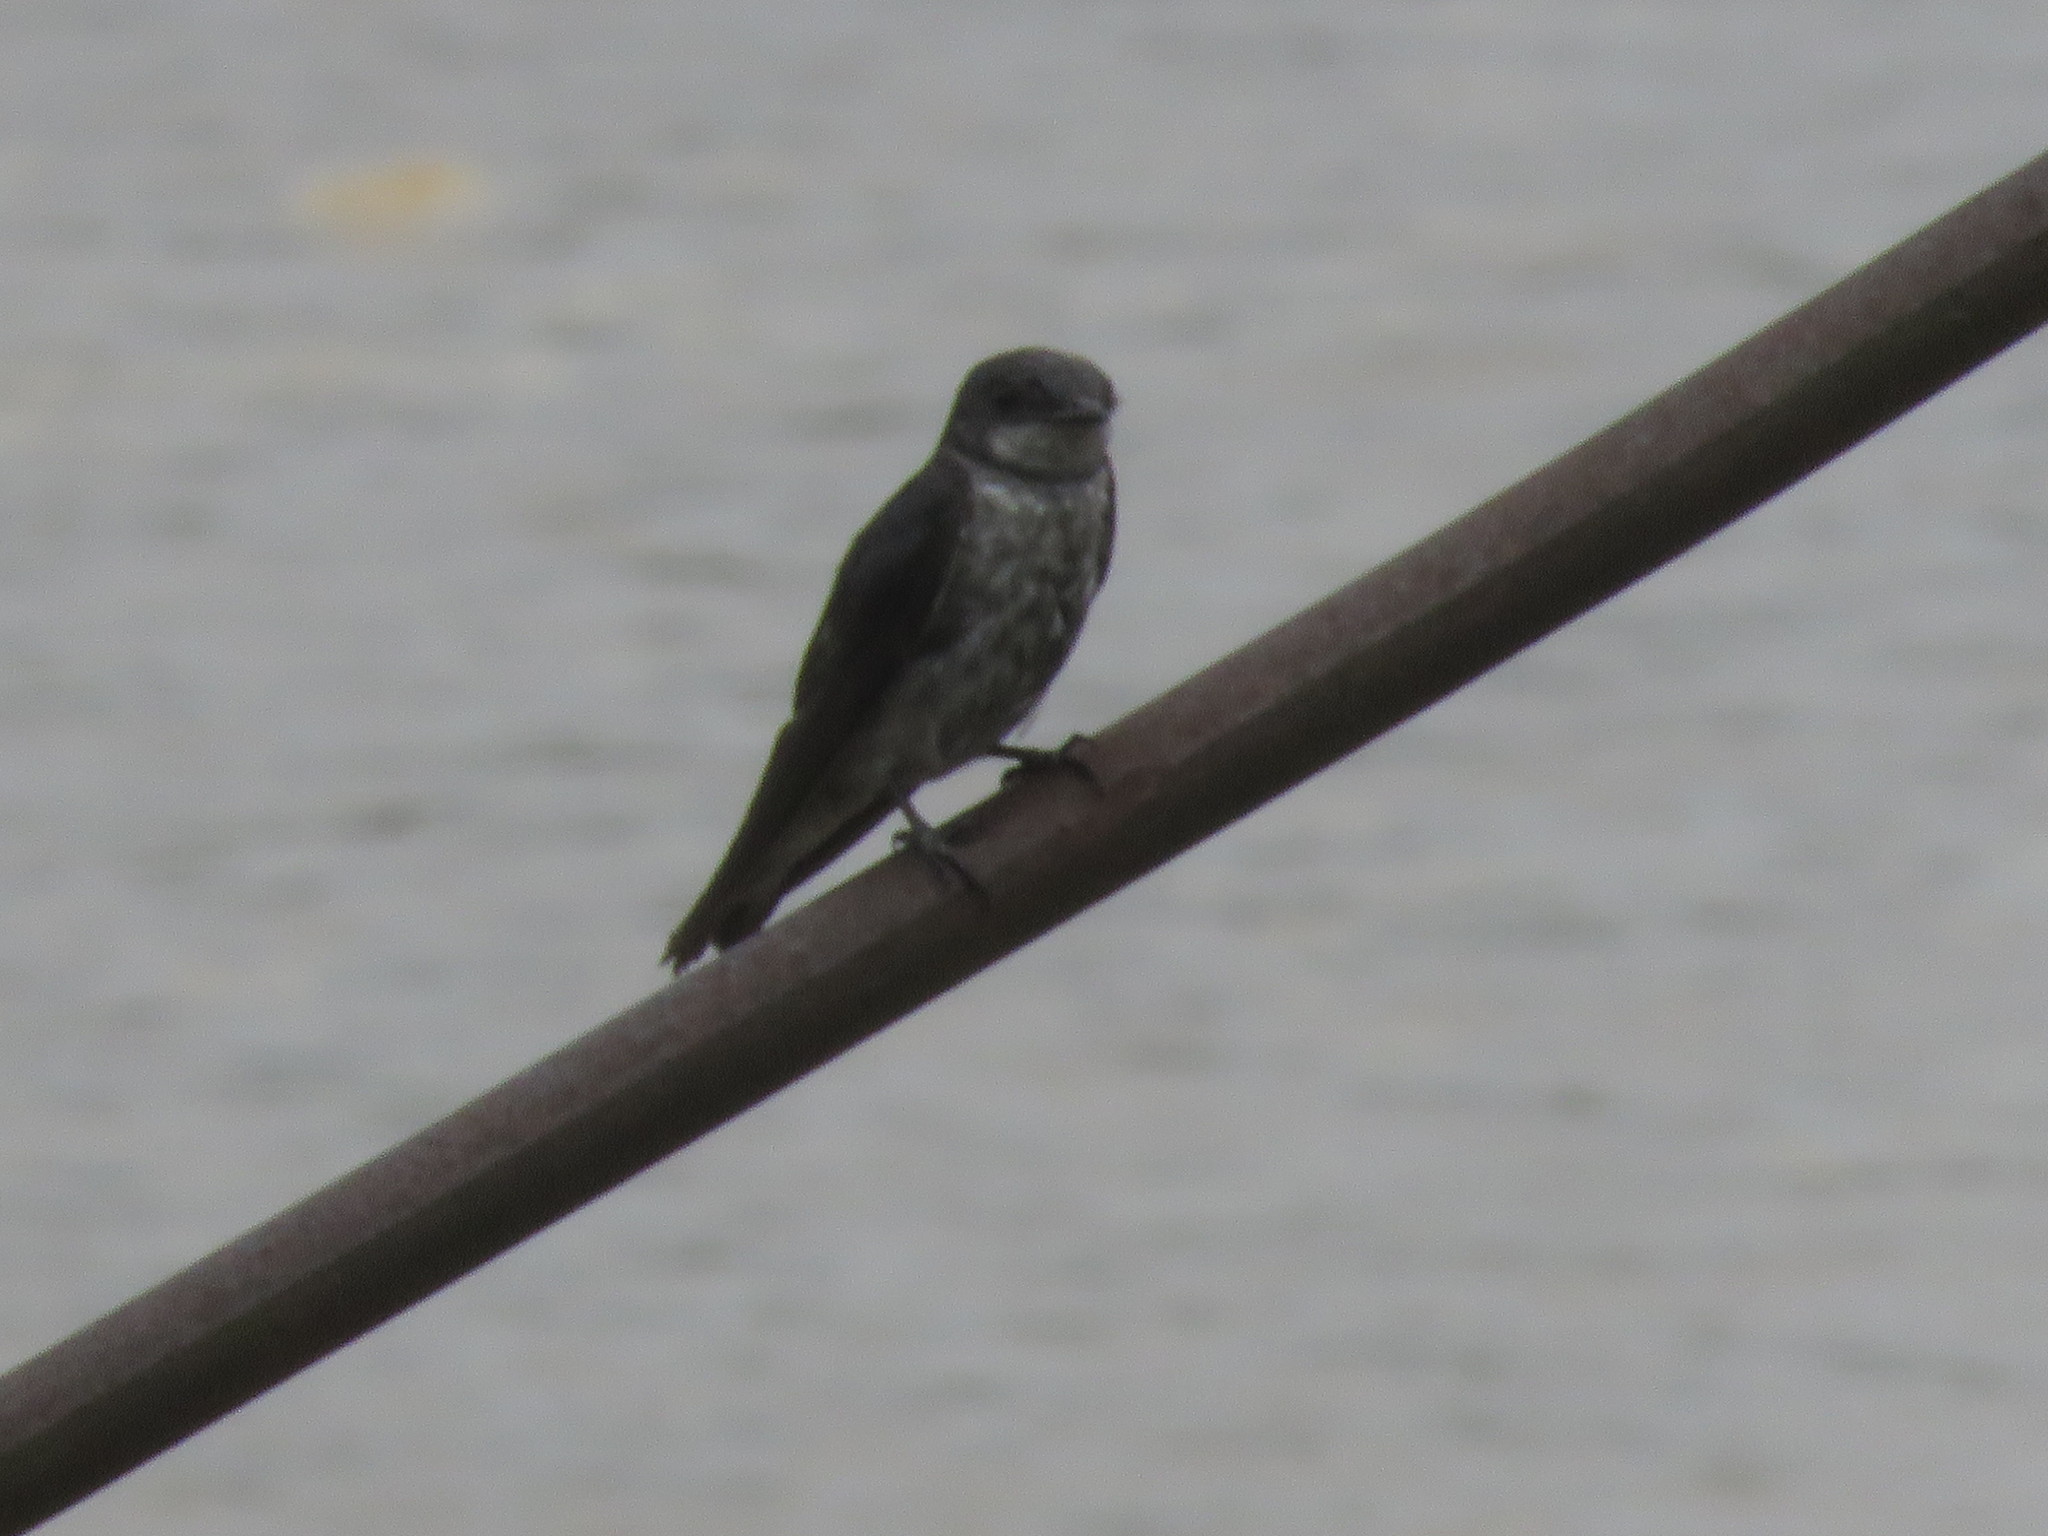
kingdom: Animalia
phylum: Chordata
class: Aves
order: Passeriformes
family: Hirundinidae
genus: Progne
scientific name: Progne elegans
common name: Southern martin
